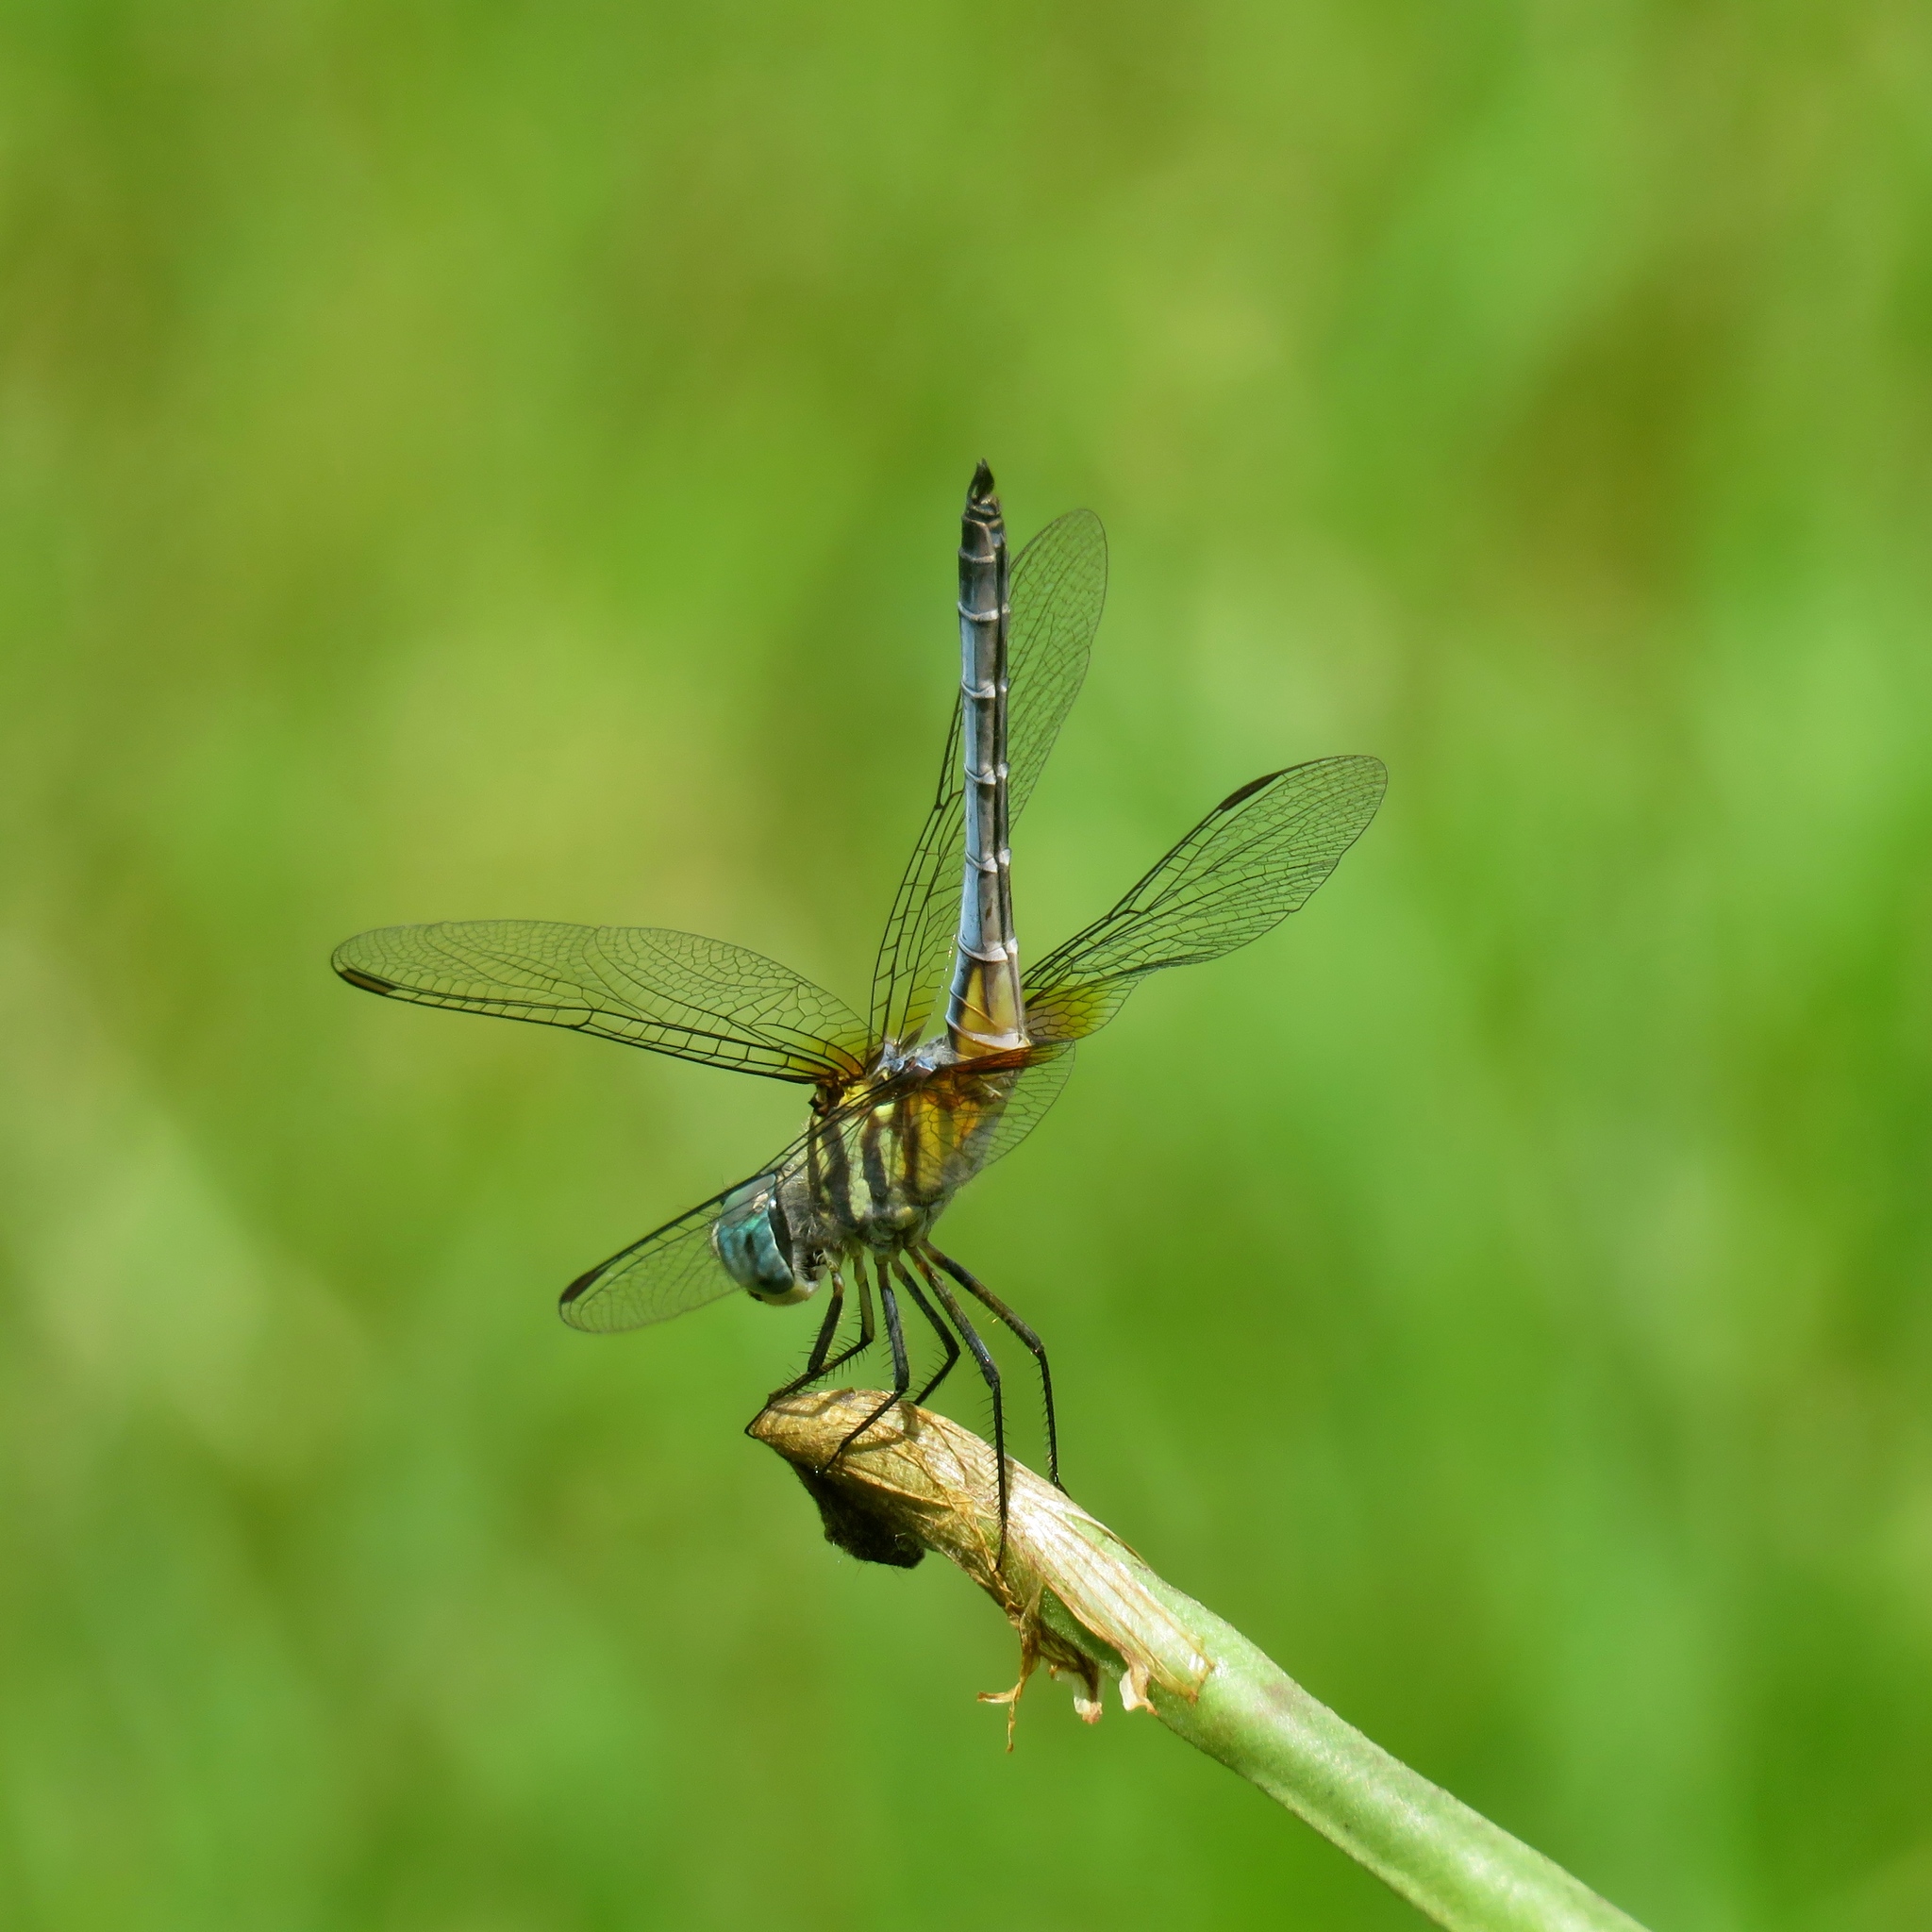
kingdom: Animalia
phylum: Arthropoda
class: Insecta
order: Odonata
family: Libellulidae
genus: Pachydiplax
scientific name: Pachydiplax longipennis
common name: Blue dasher
